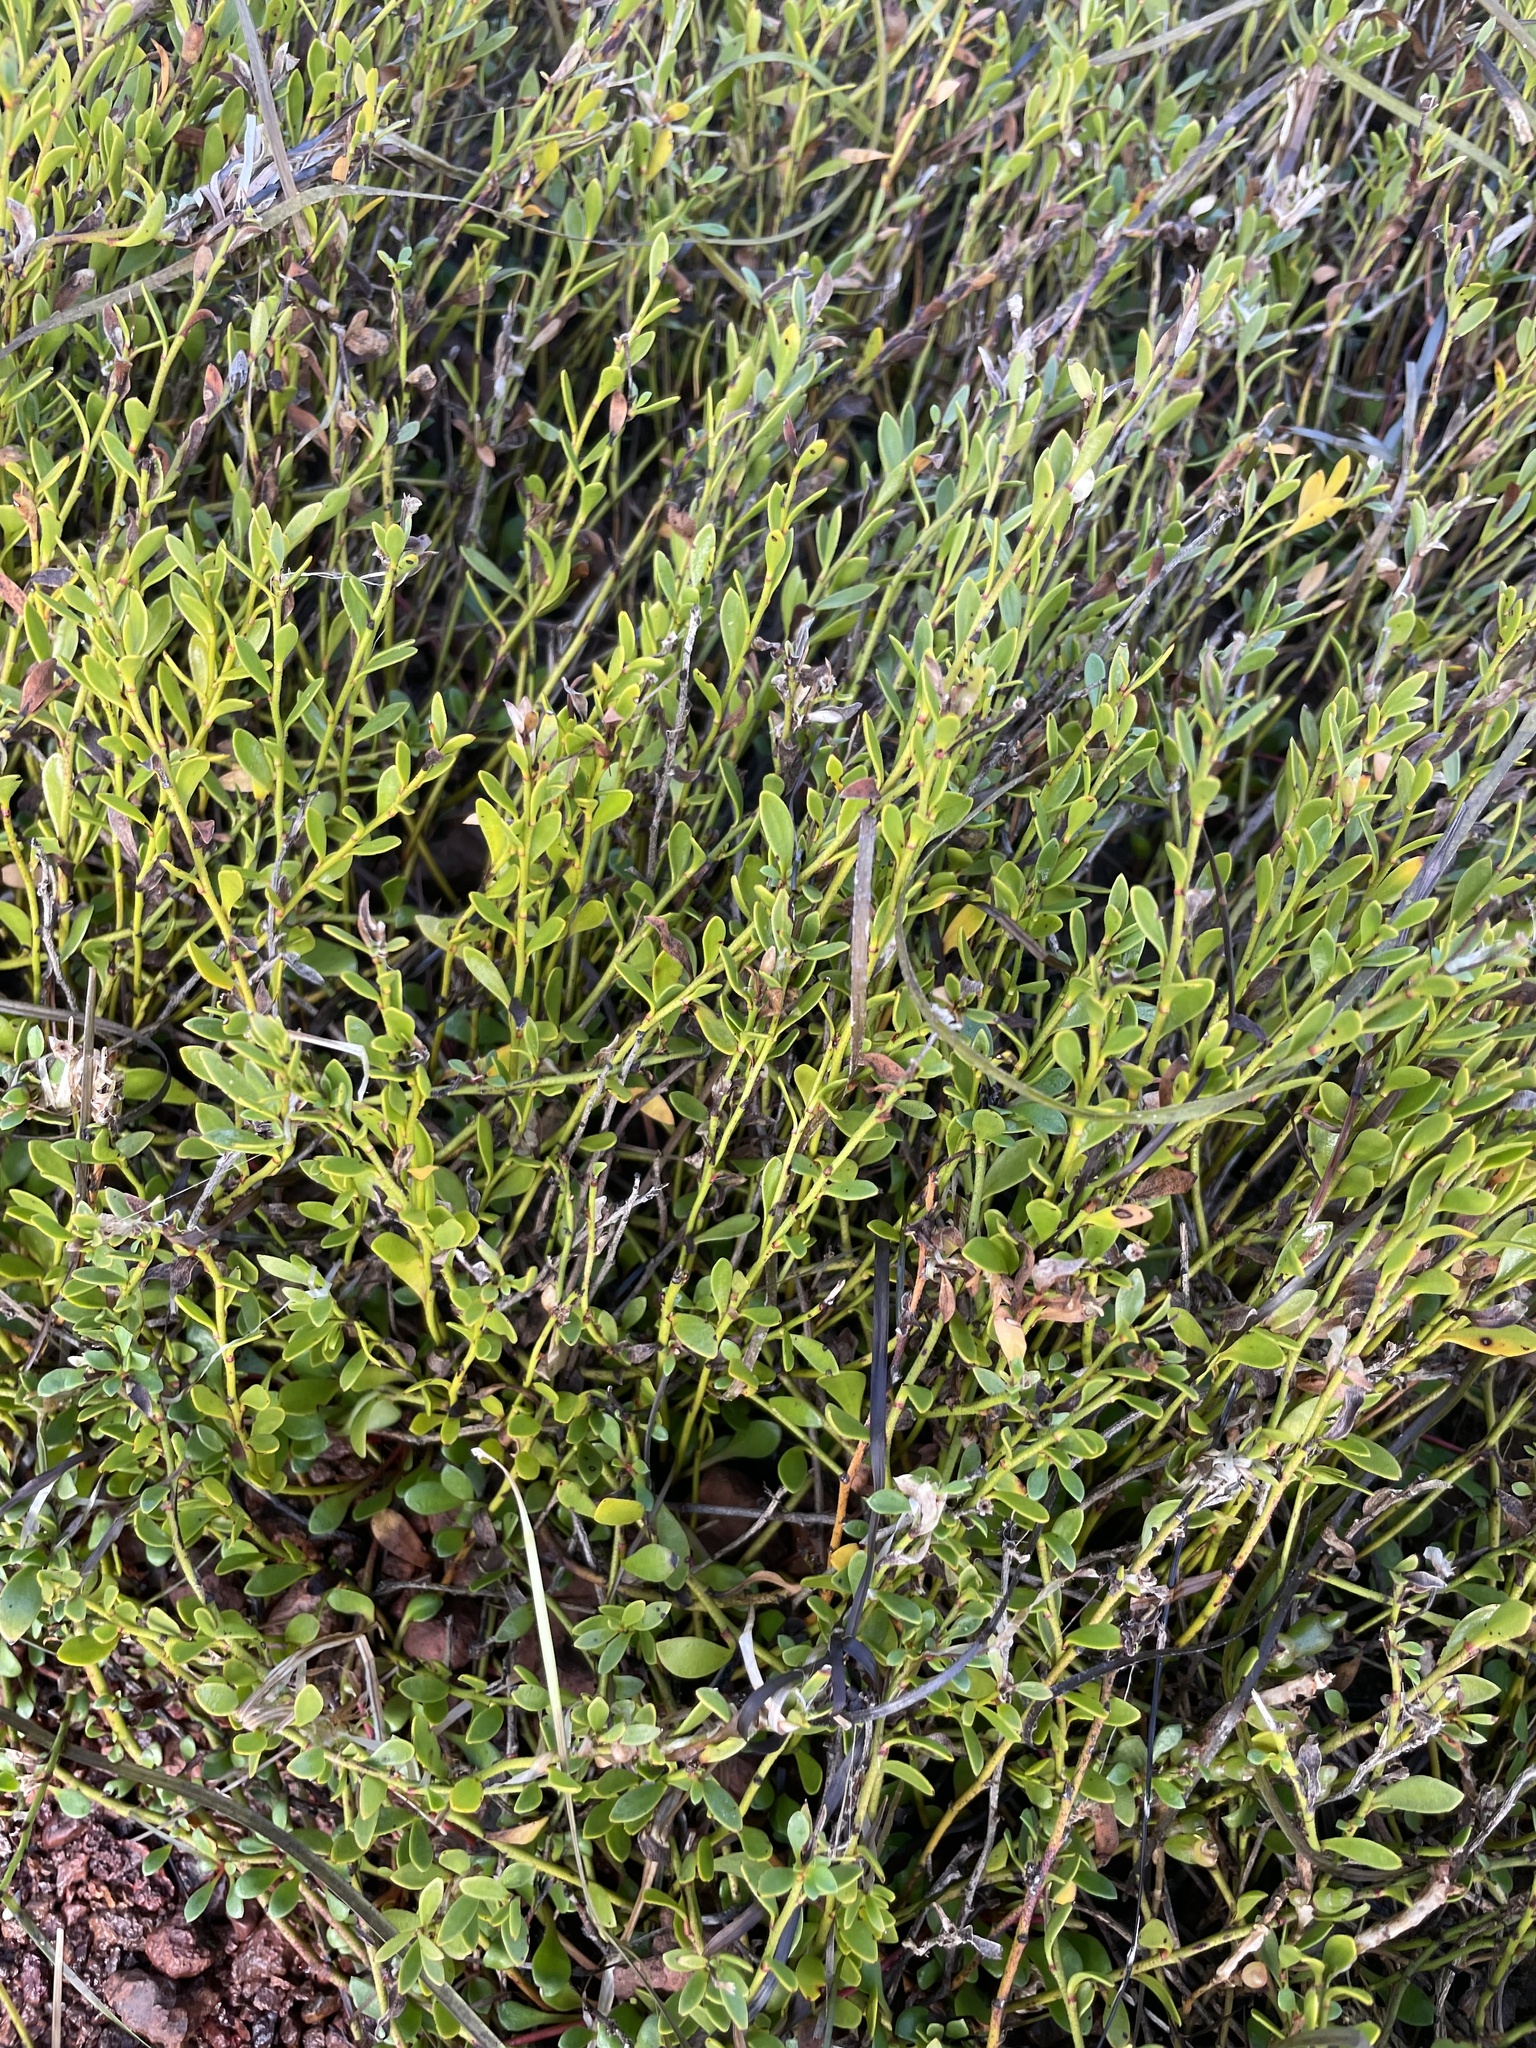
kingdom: Plantae
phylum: Tracheophyta
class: Magnoliopsida
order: Ericales
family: Primulaceae
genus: Samolus
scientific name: Samolus repens
